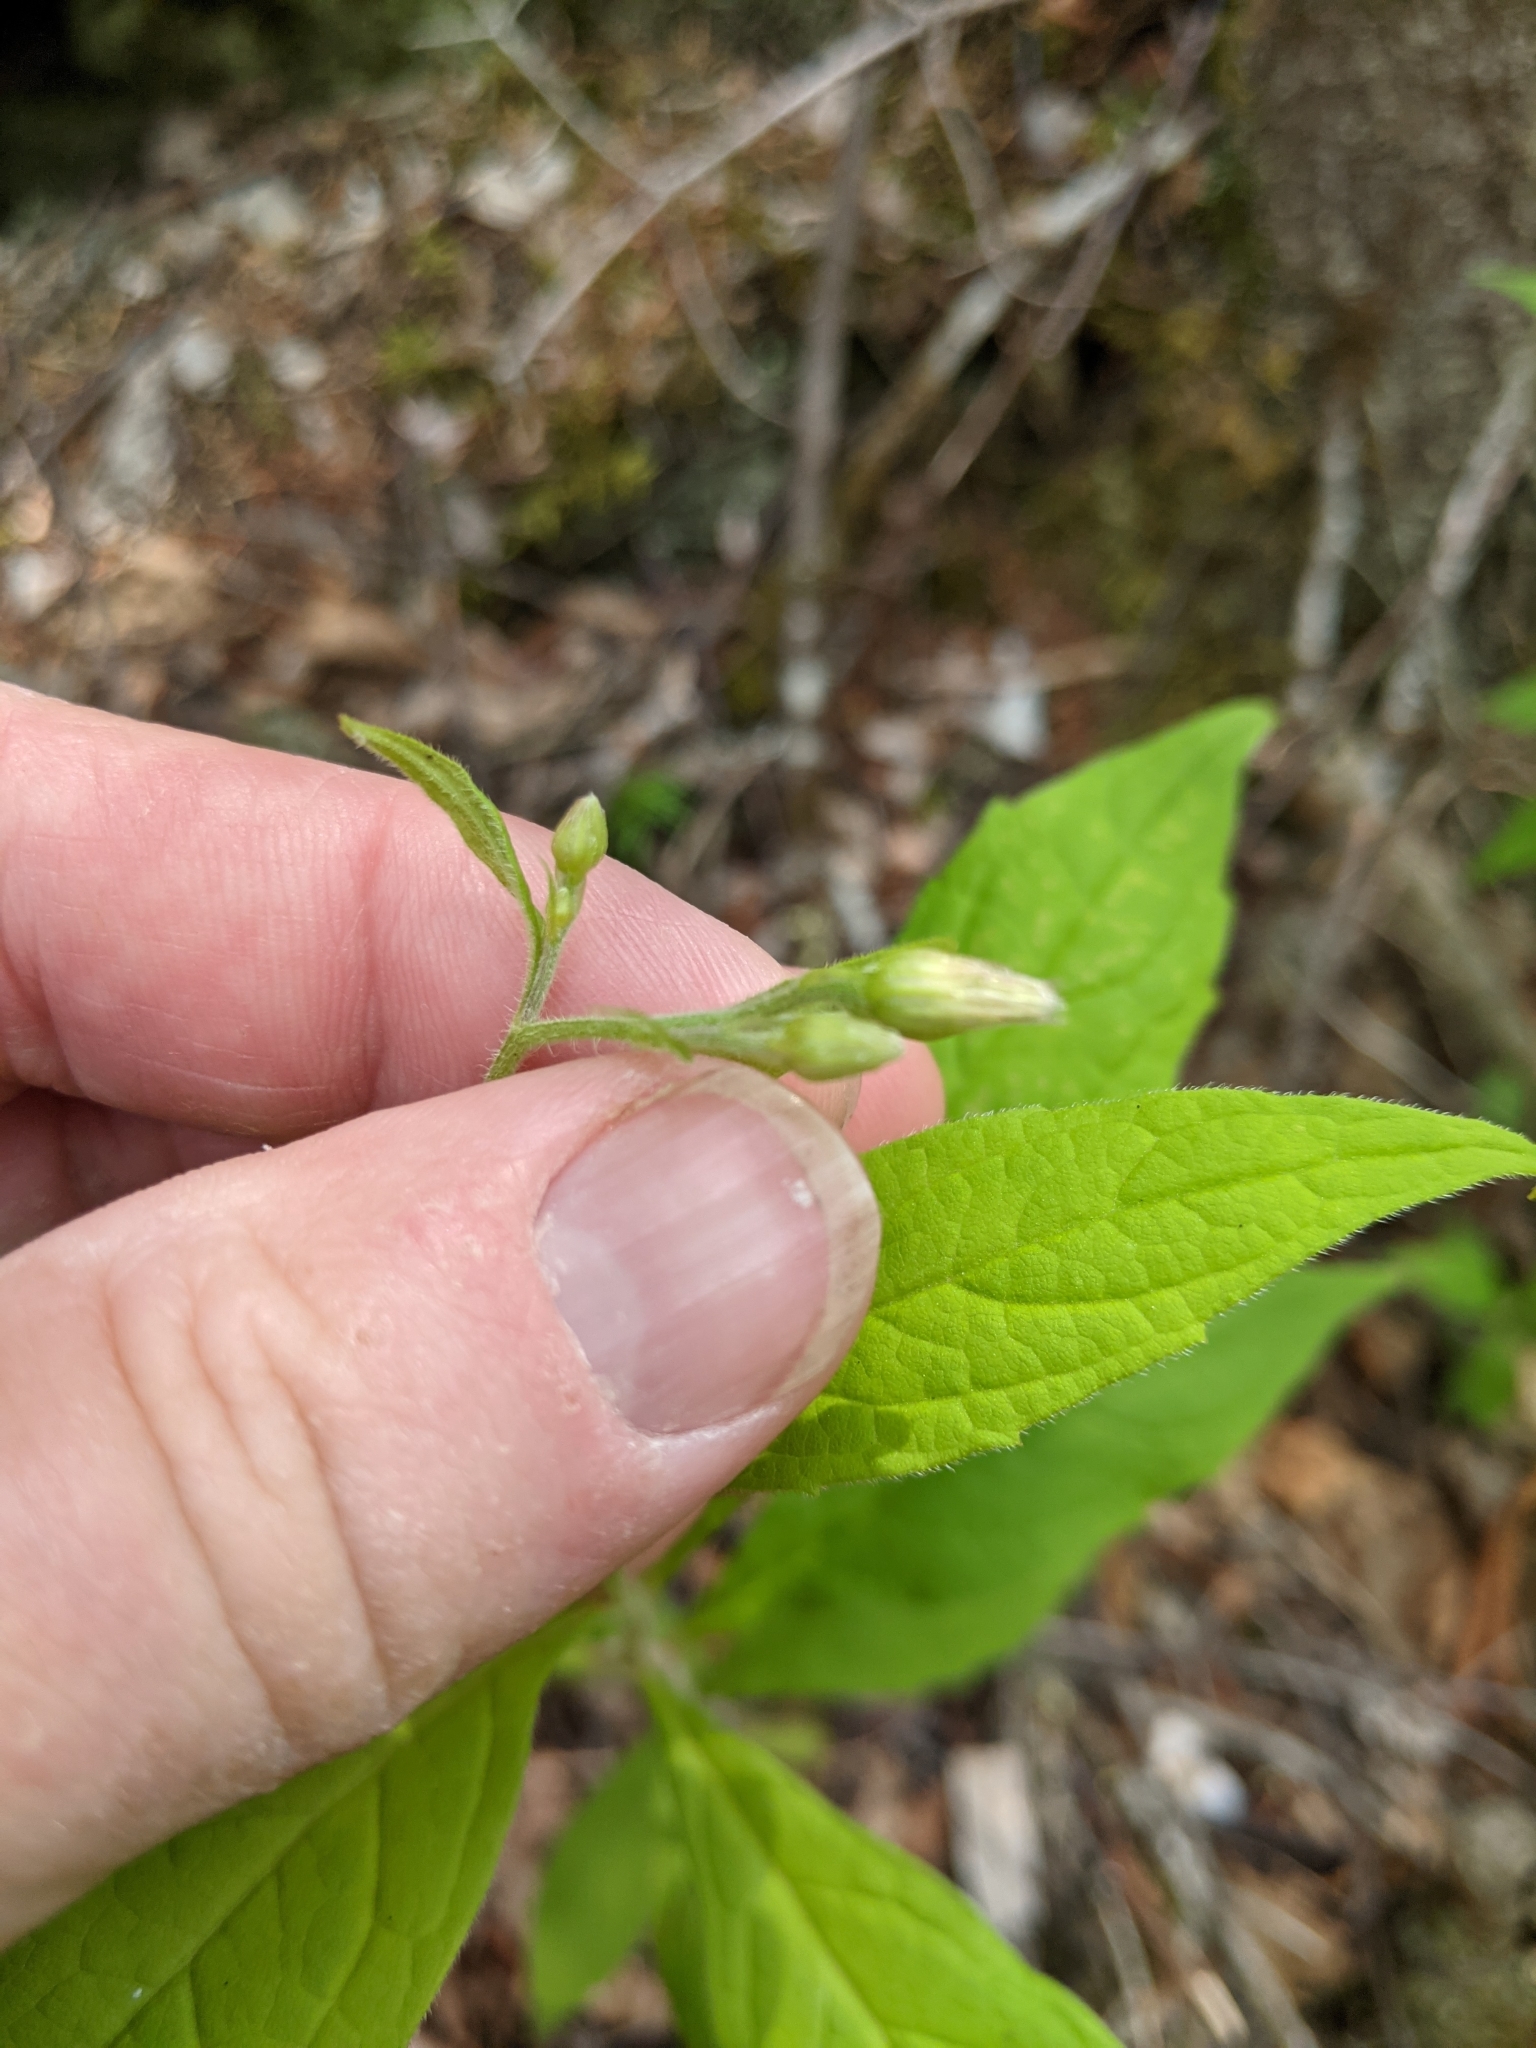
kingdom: Plantae
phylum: Tracheophyta
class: Magnoliopsida
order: Asterales
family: Asteraceae
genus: Oclemena
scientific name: Oclemena acuminata
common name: Mountain aster
